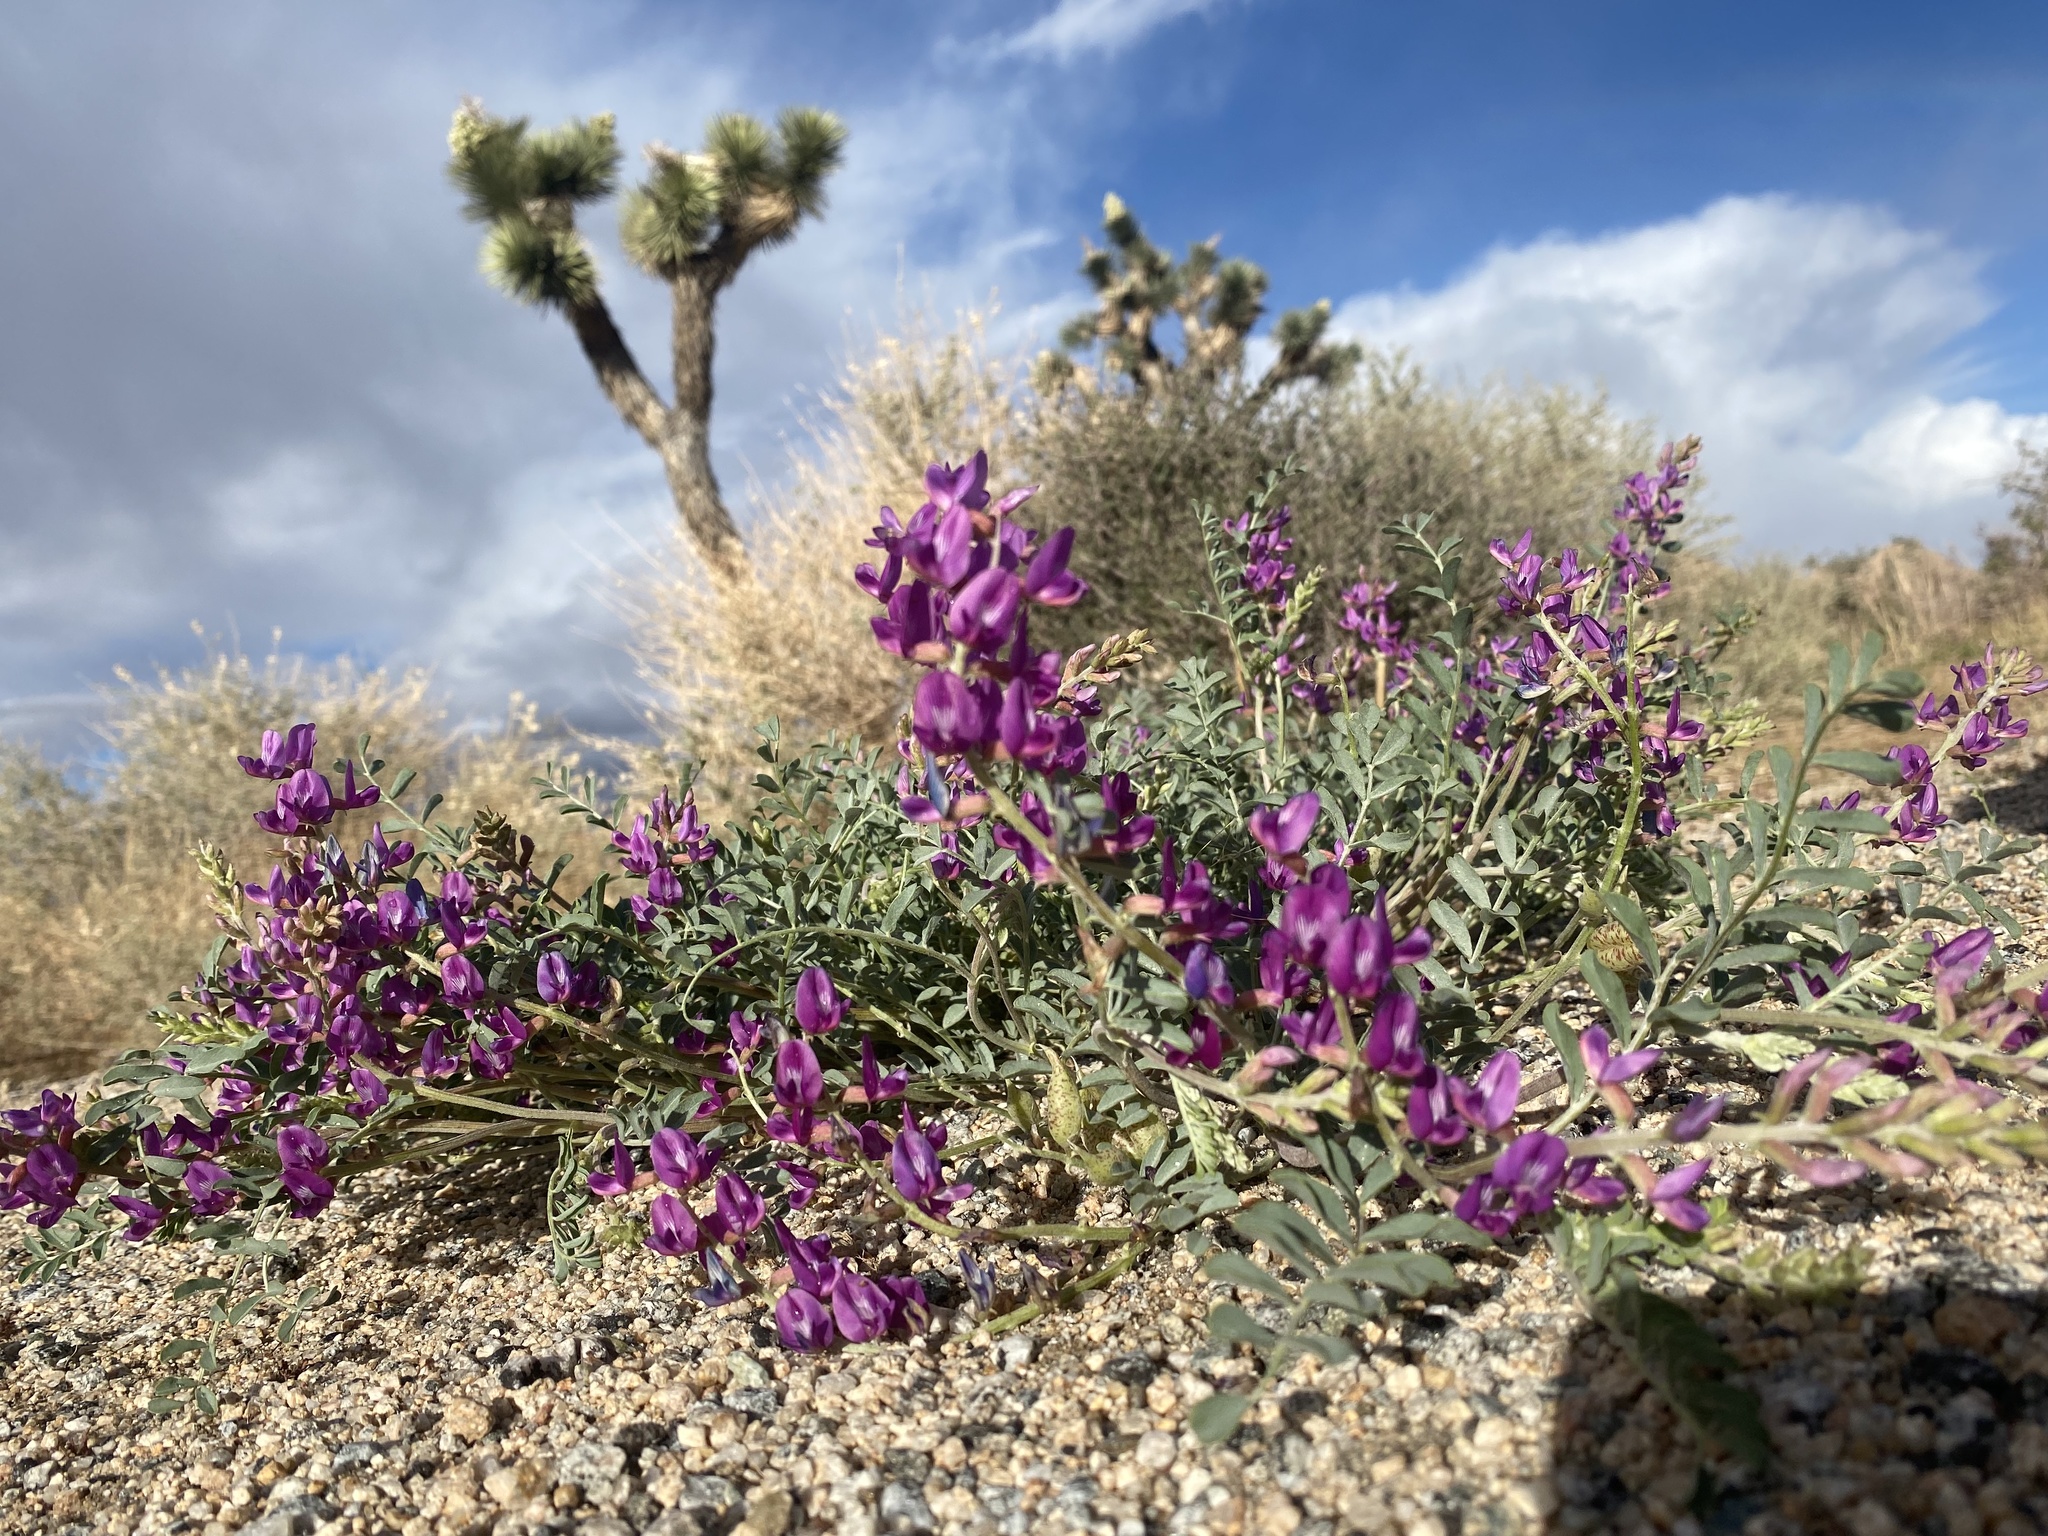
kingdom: Plantae
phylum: Tracheophyta
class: Magnoliopsida
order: Fabales
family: Fabaceae
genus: Astragalus
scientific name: Astragalus lentiginosus
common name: Freckled milkvetch
